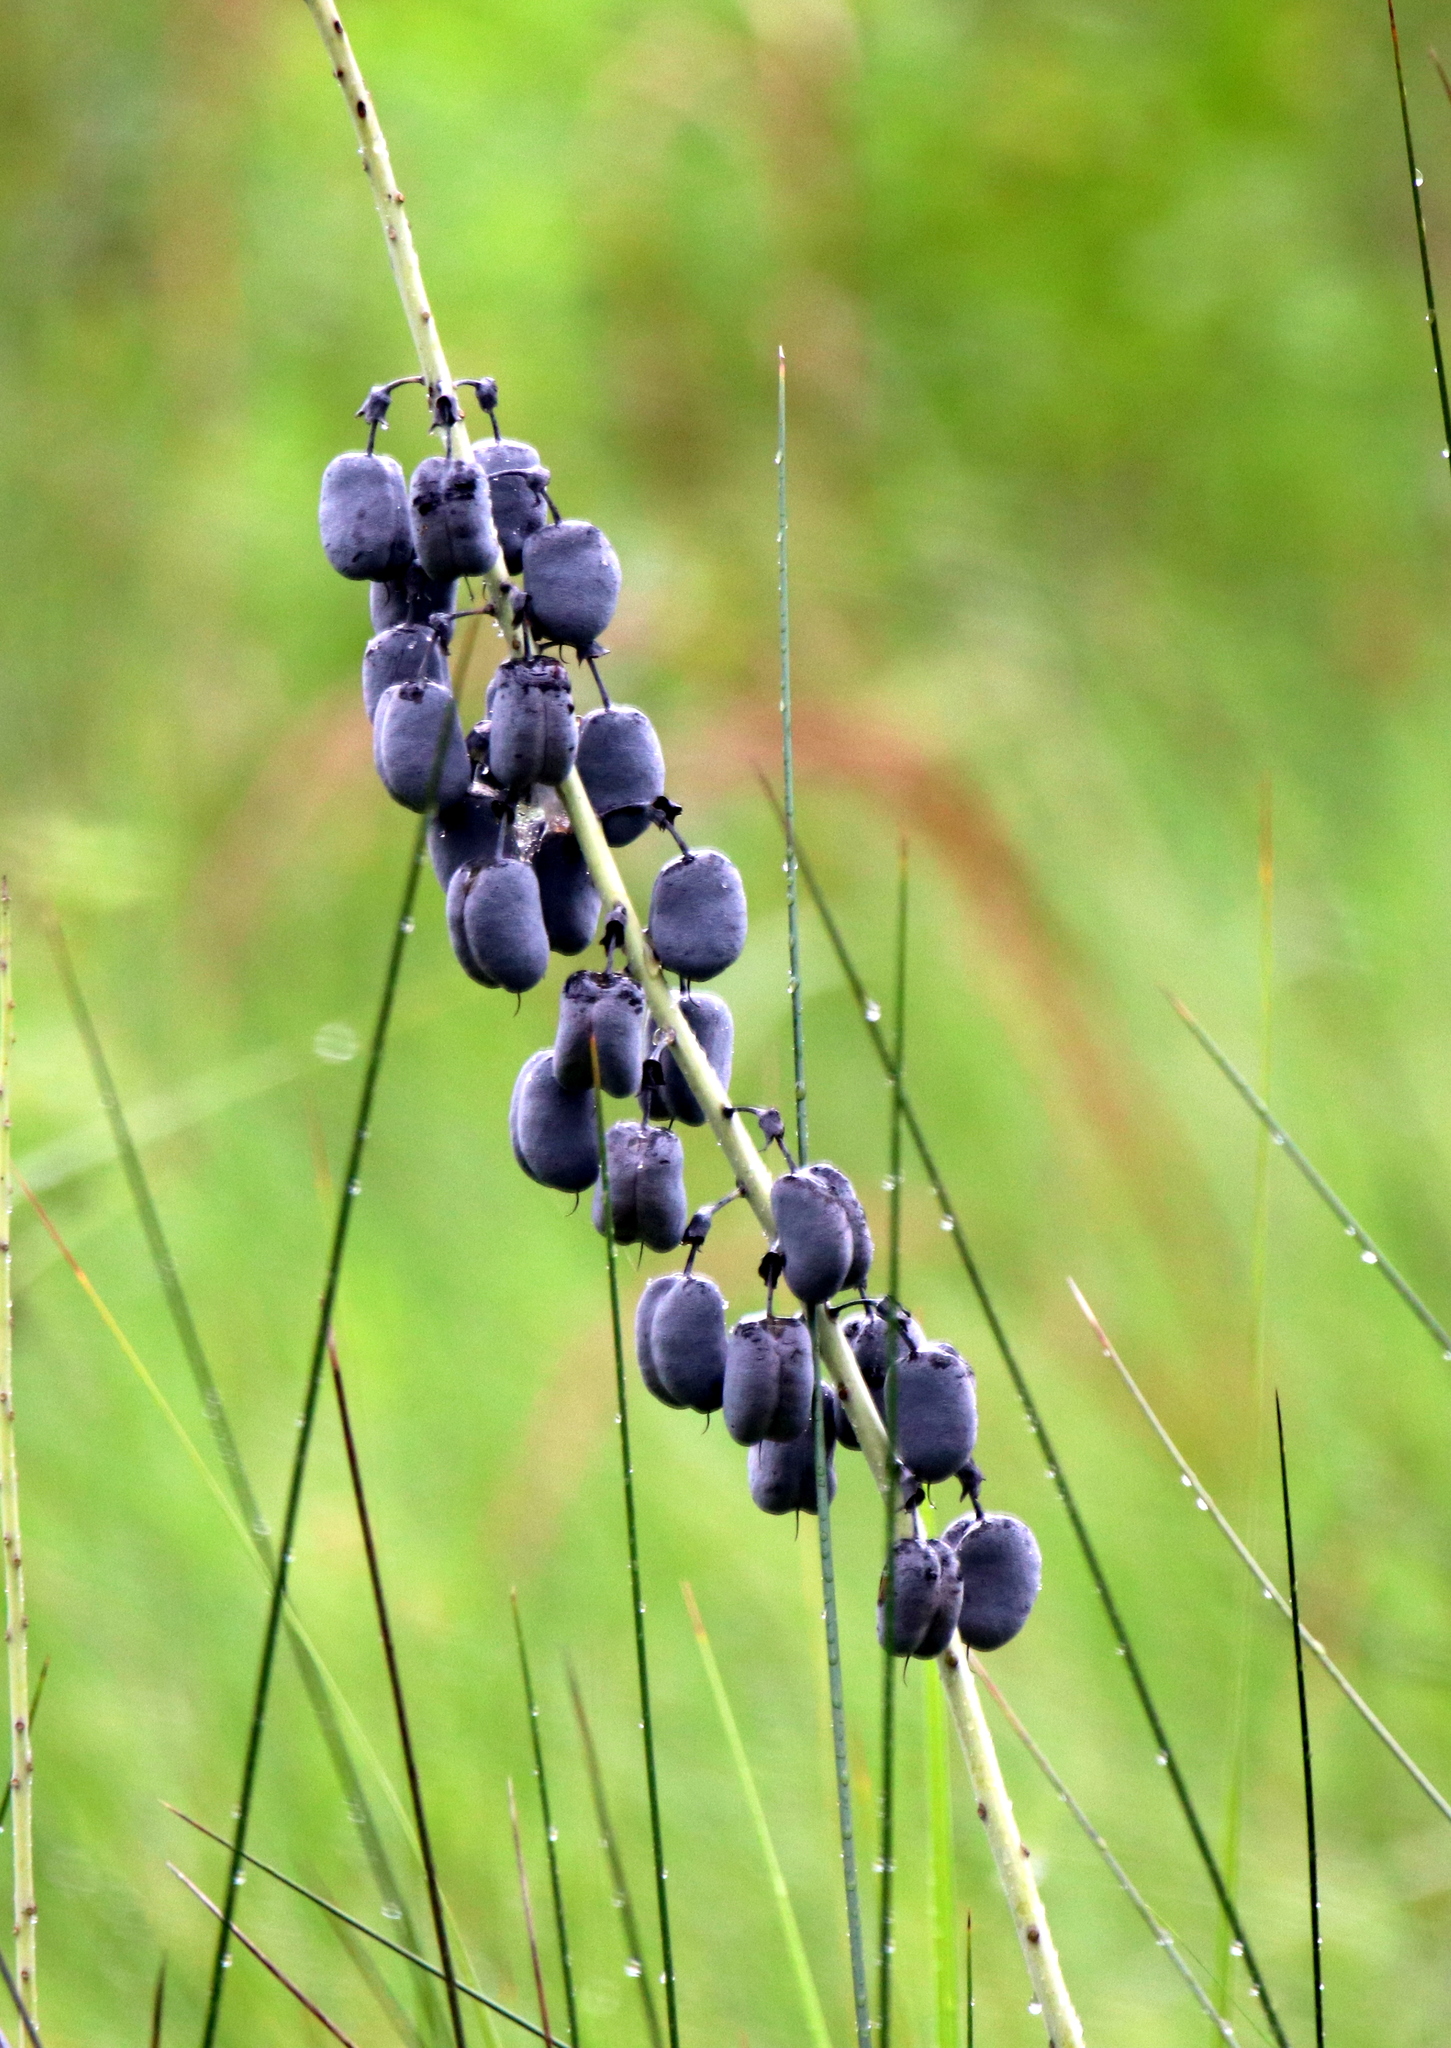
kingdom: Plantae
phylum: Tracheophyta
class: Magnoliopsida
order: Fabales
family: Fabaceae
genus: Baptisia
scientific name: Baptisia alba
